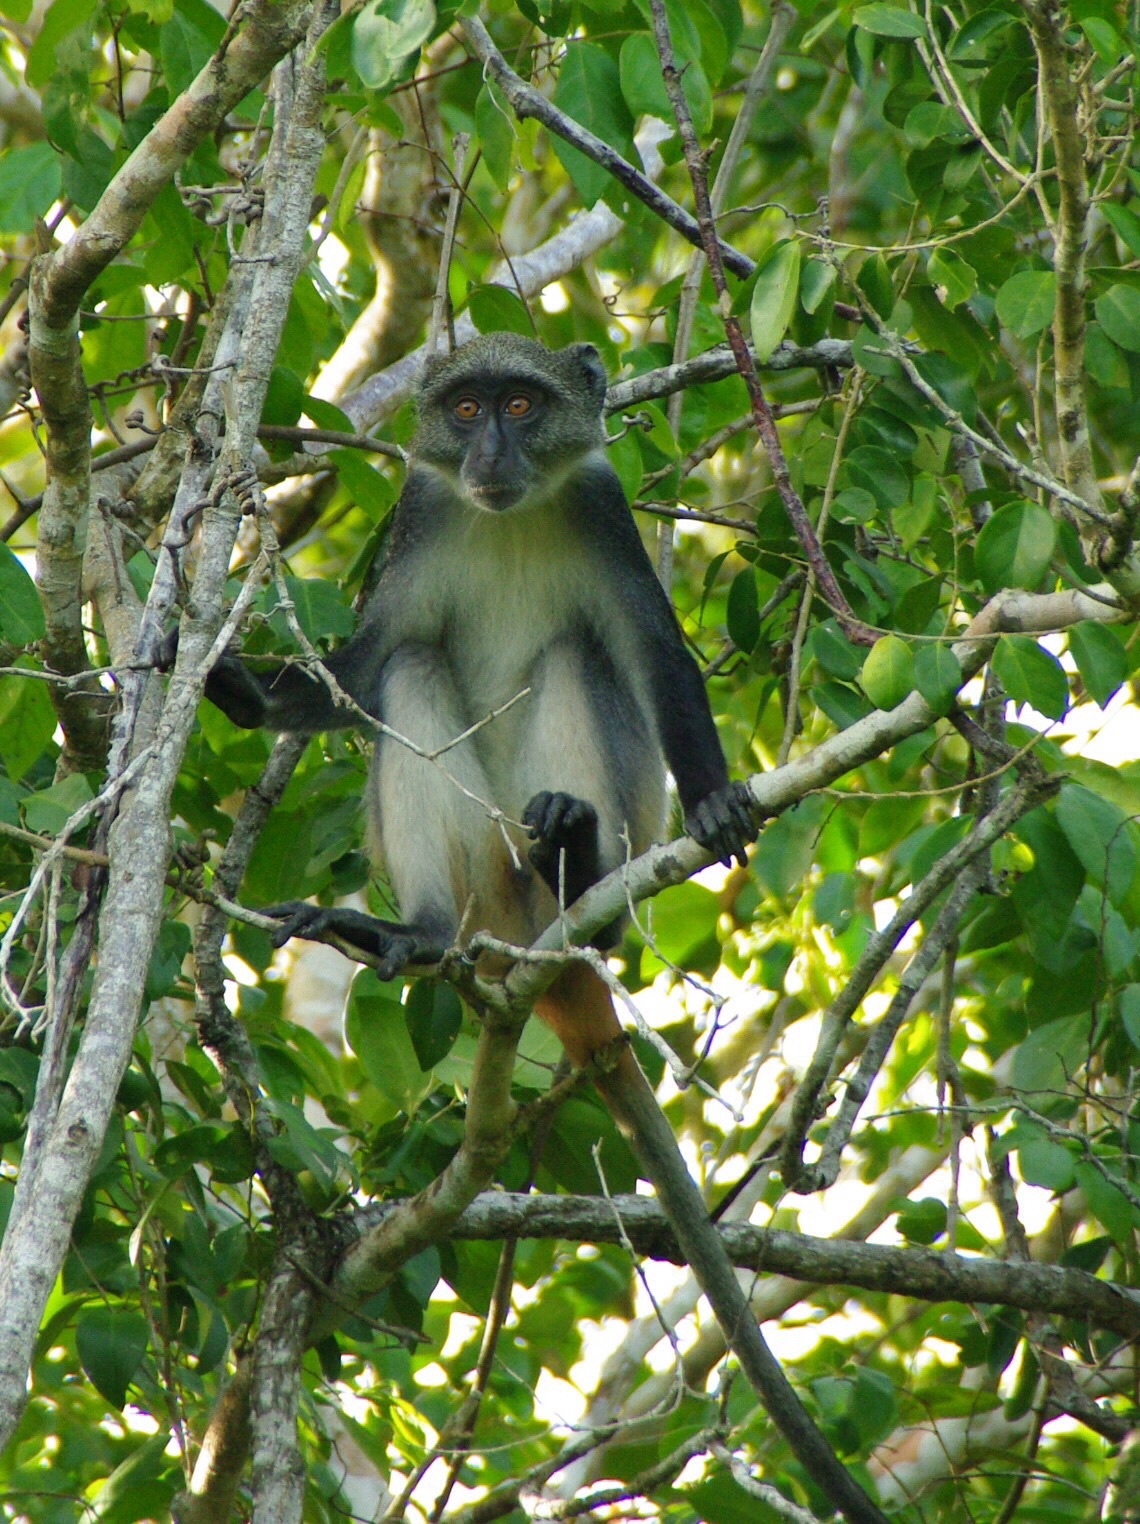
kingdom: Animalia
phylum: Chordata
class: Mammalia
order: Primates
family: Cercopithecidae
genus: Cercopithecus
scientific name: Cercopithecus mitis
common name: Blue monkey
